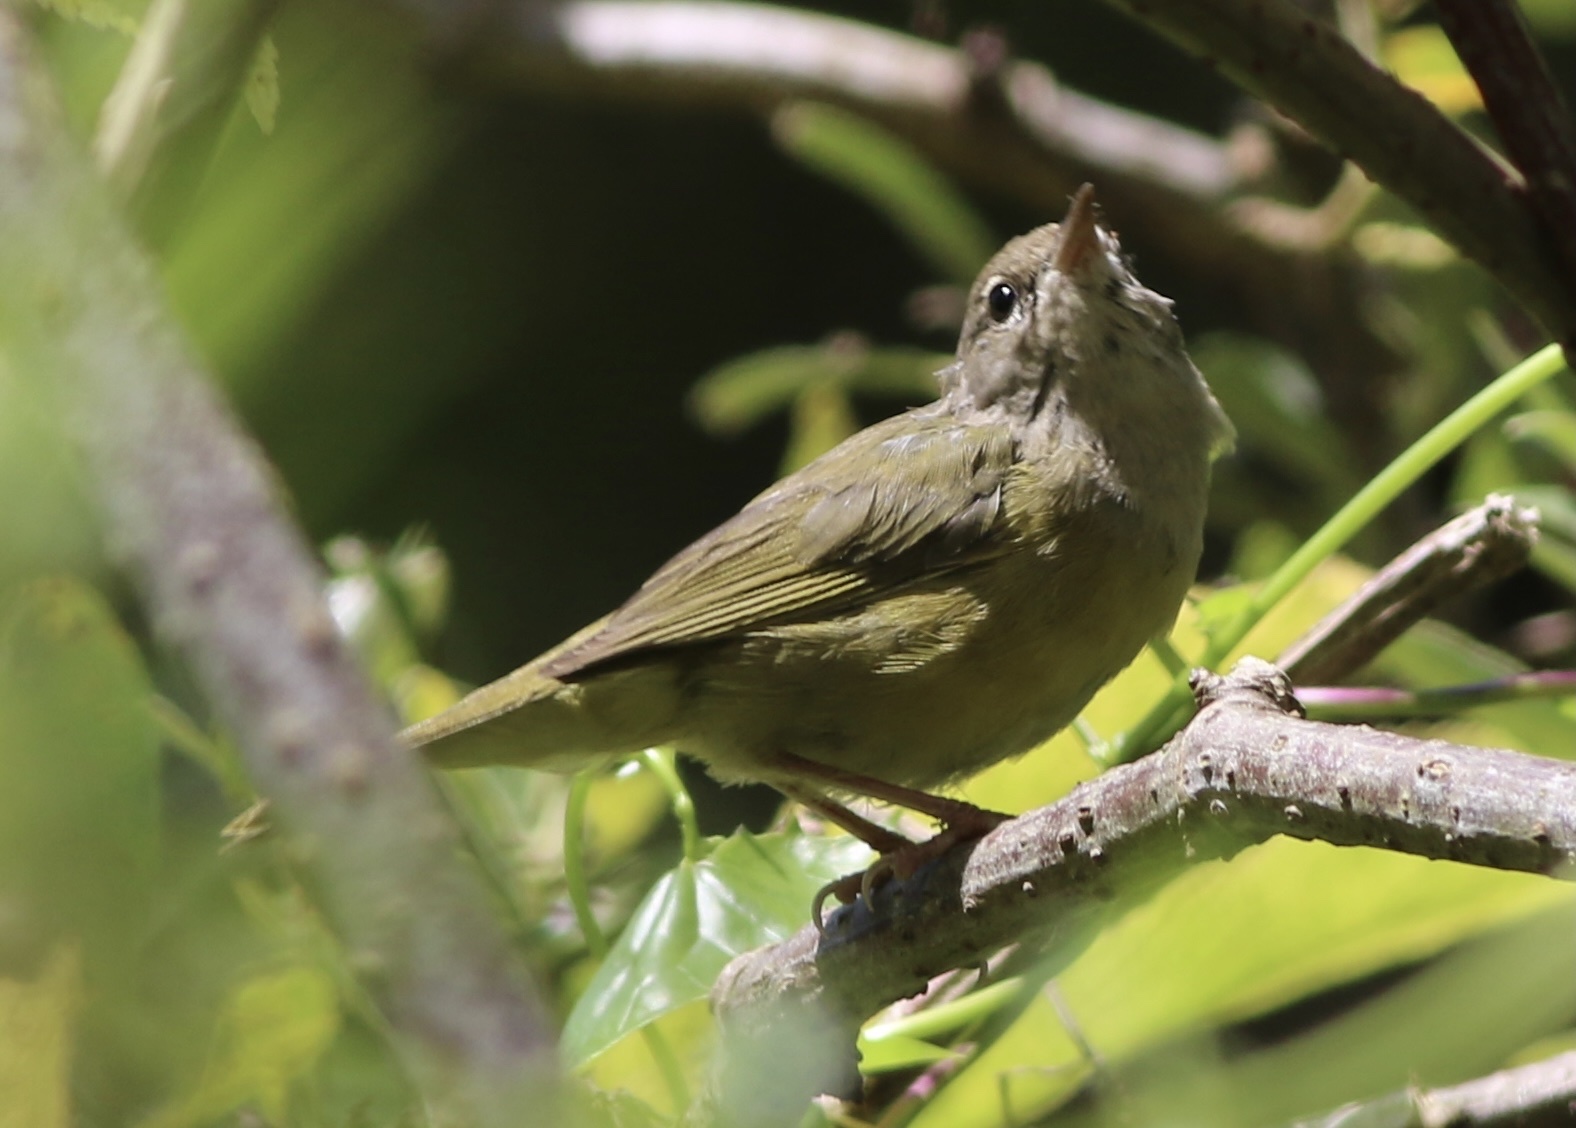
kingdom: Animalia
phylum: Chordata
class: Aves
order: Passeriformes
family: Parulidae
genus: Geothlypis
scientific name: Geothlypis tolmiei
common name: Macgillivray's warbler
